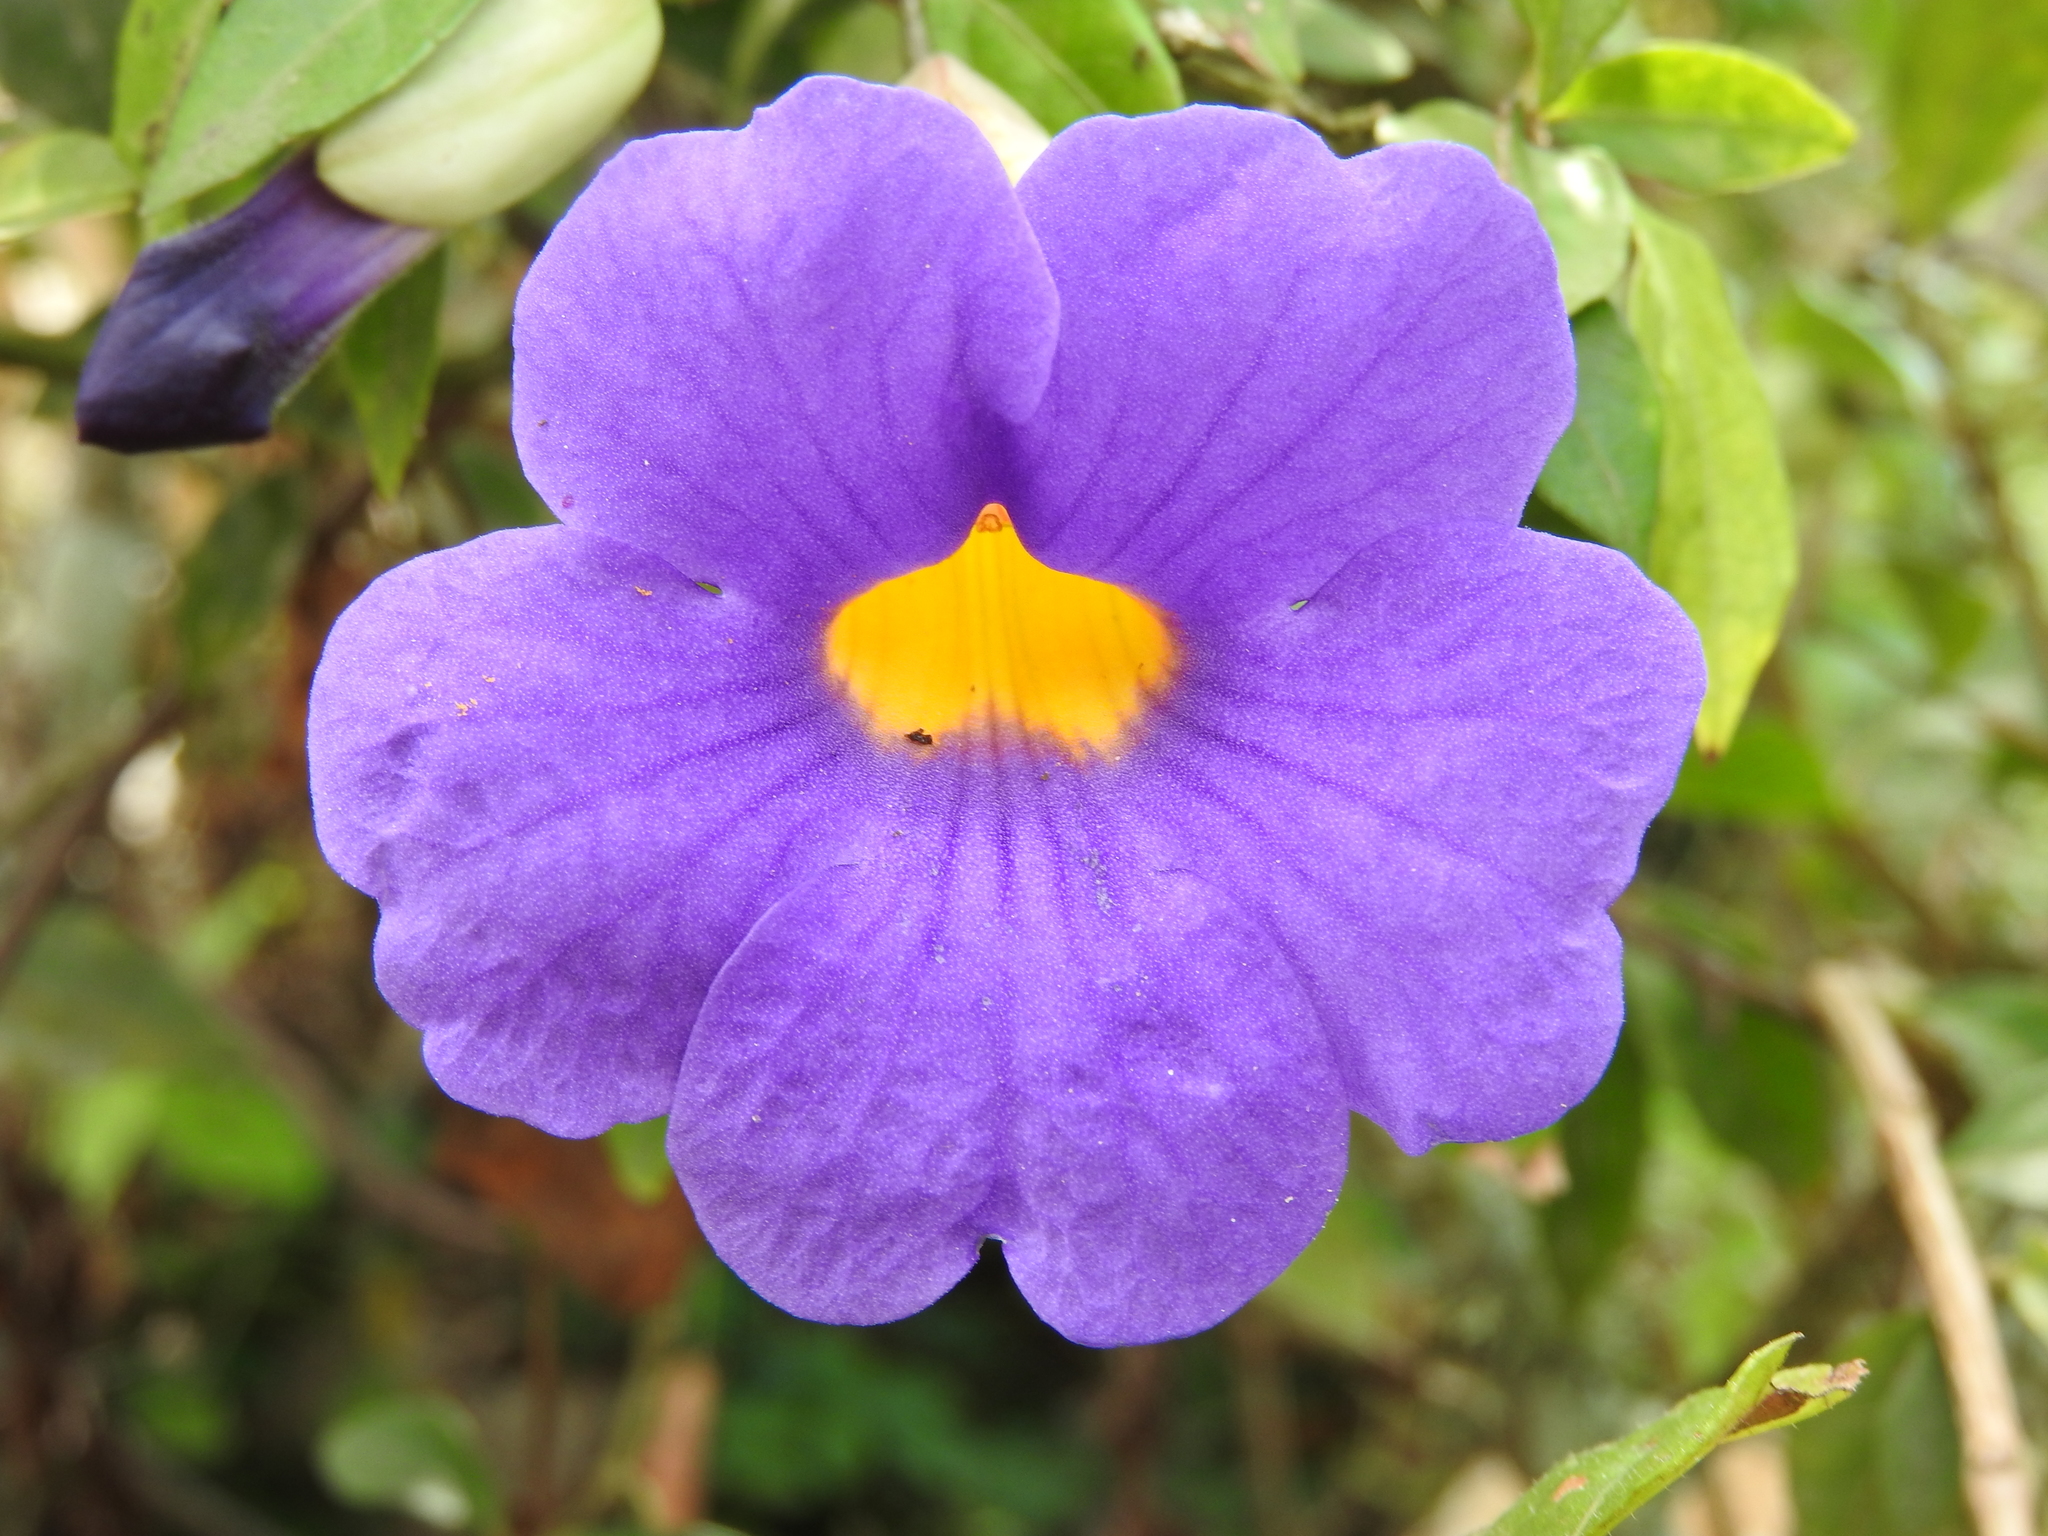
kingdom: Plantae
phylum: Tracheophyta
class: Magnoliopsida
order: Lamiales
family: Acanthaceae
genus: Thunbergia
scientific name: Thunbergia erecta
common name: Bush clockvine
